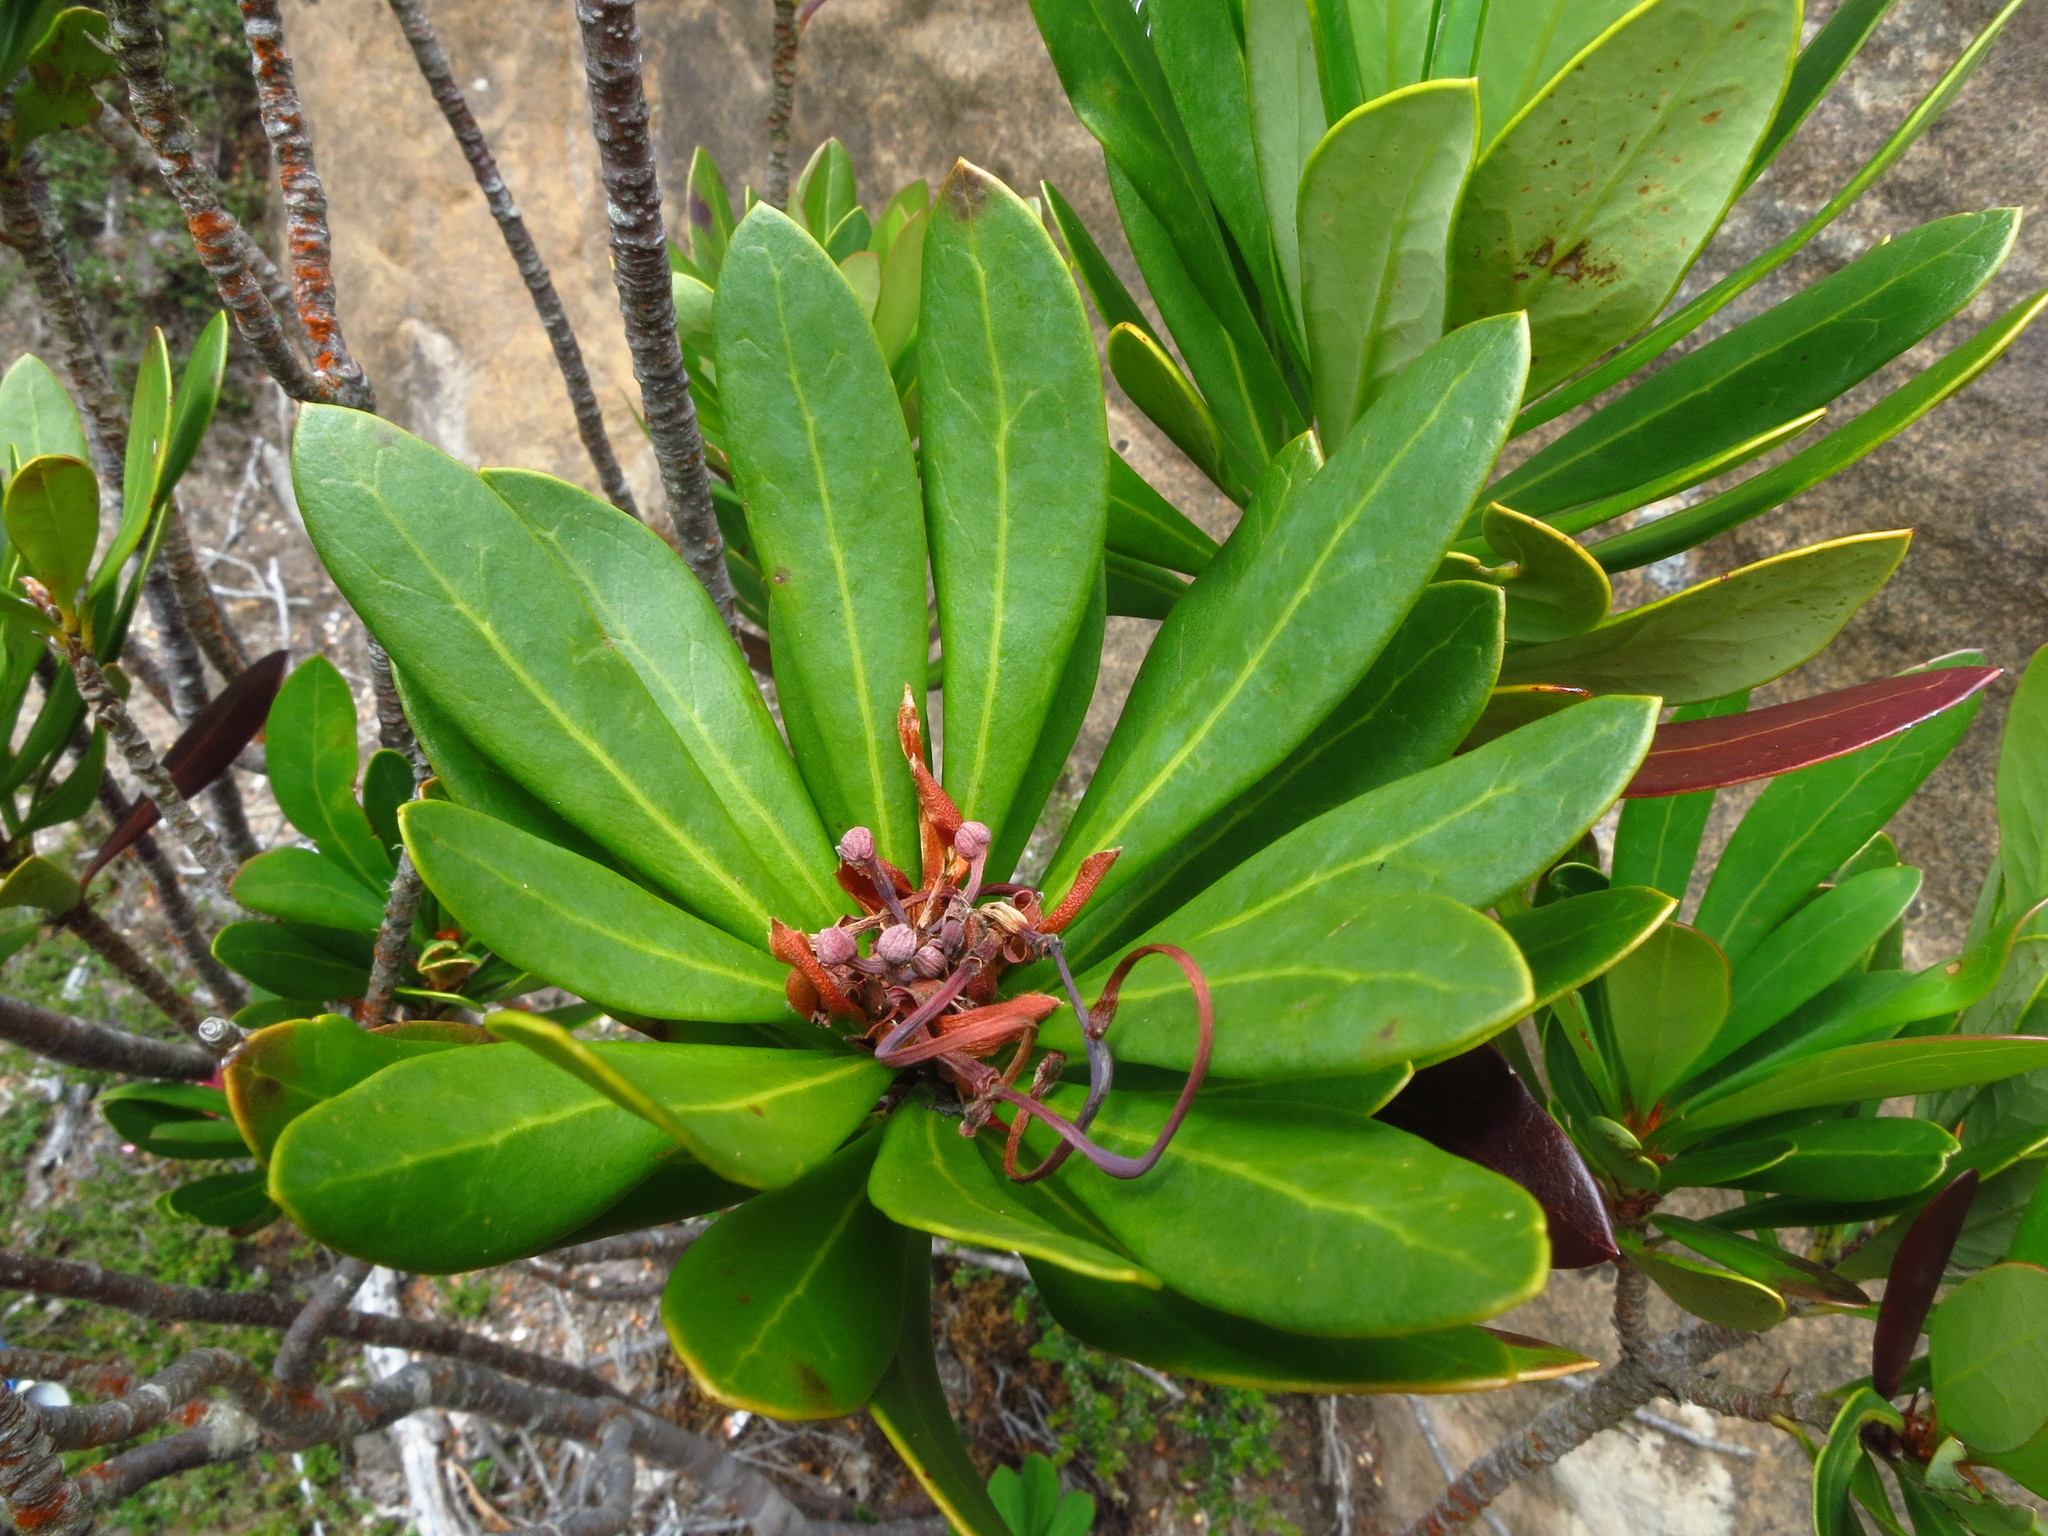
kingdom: Plantae
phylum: Tracheophyta
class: Magnoliopsida
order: Proteales
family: Proteaceae
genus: Telopea
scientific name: Telopea truncata
